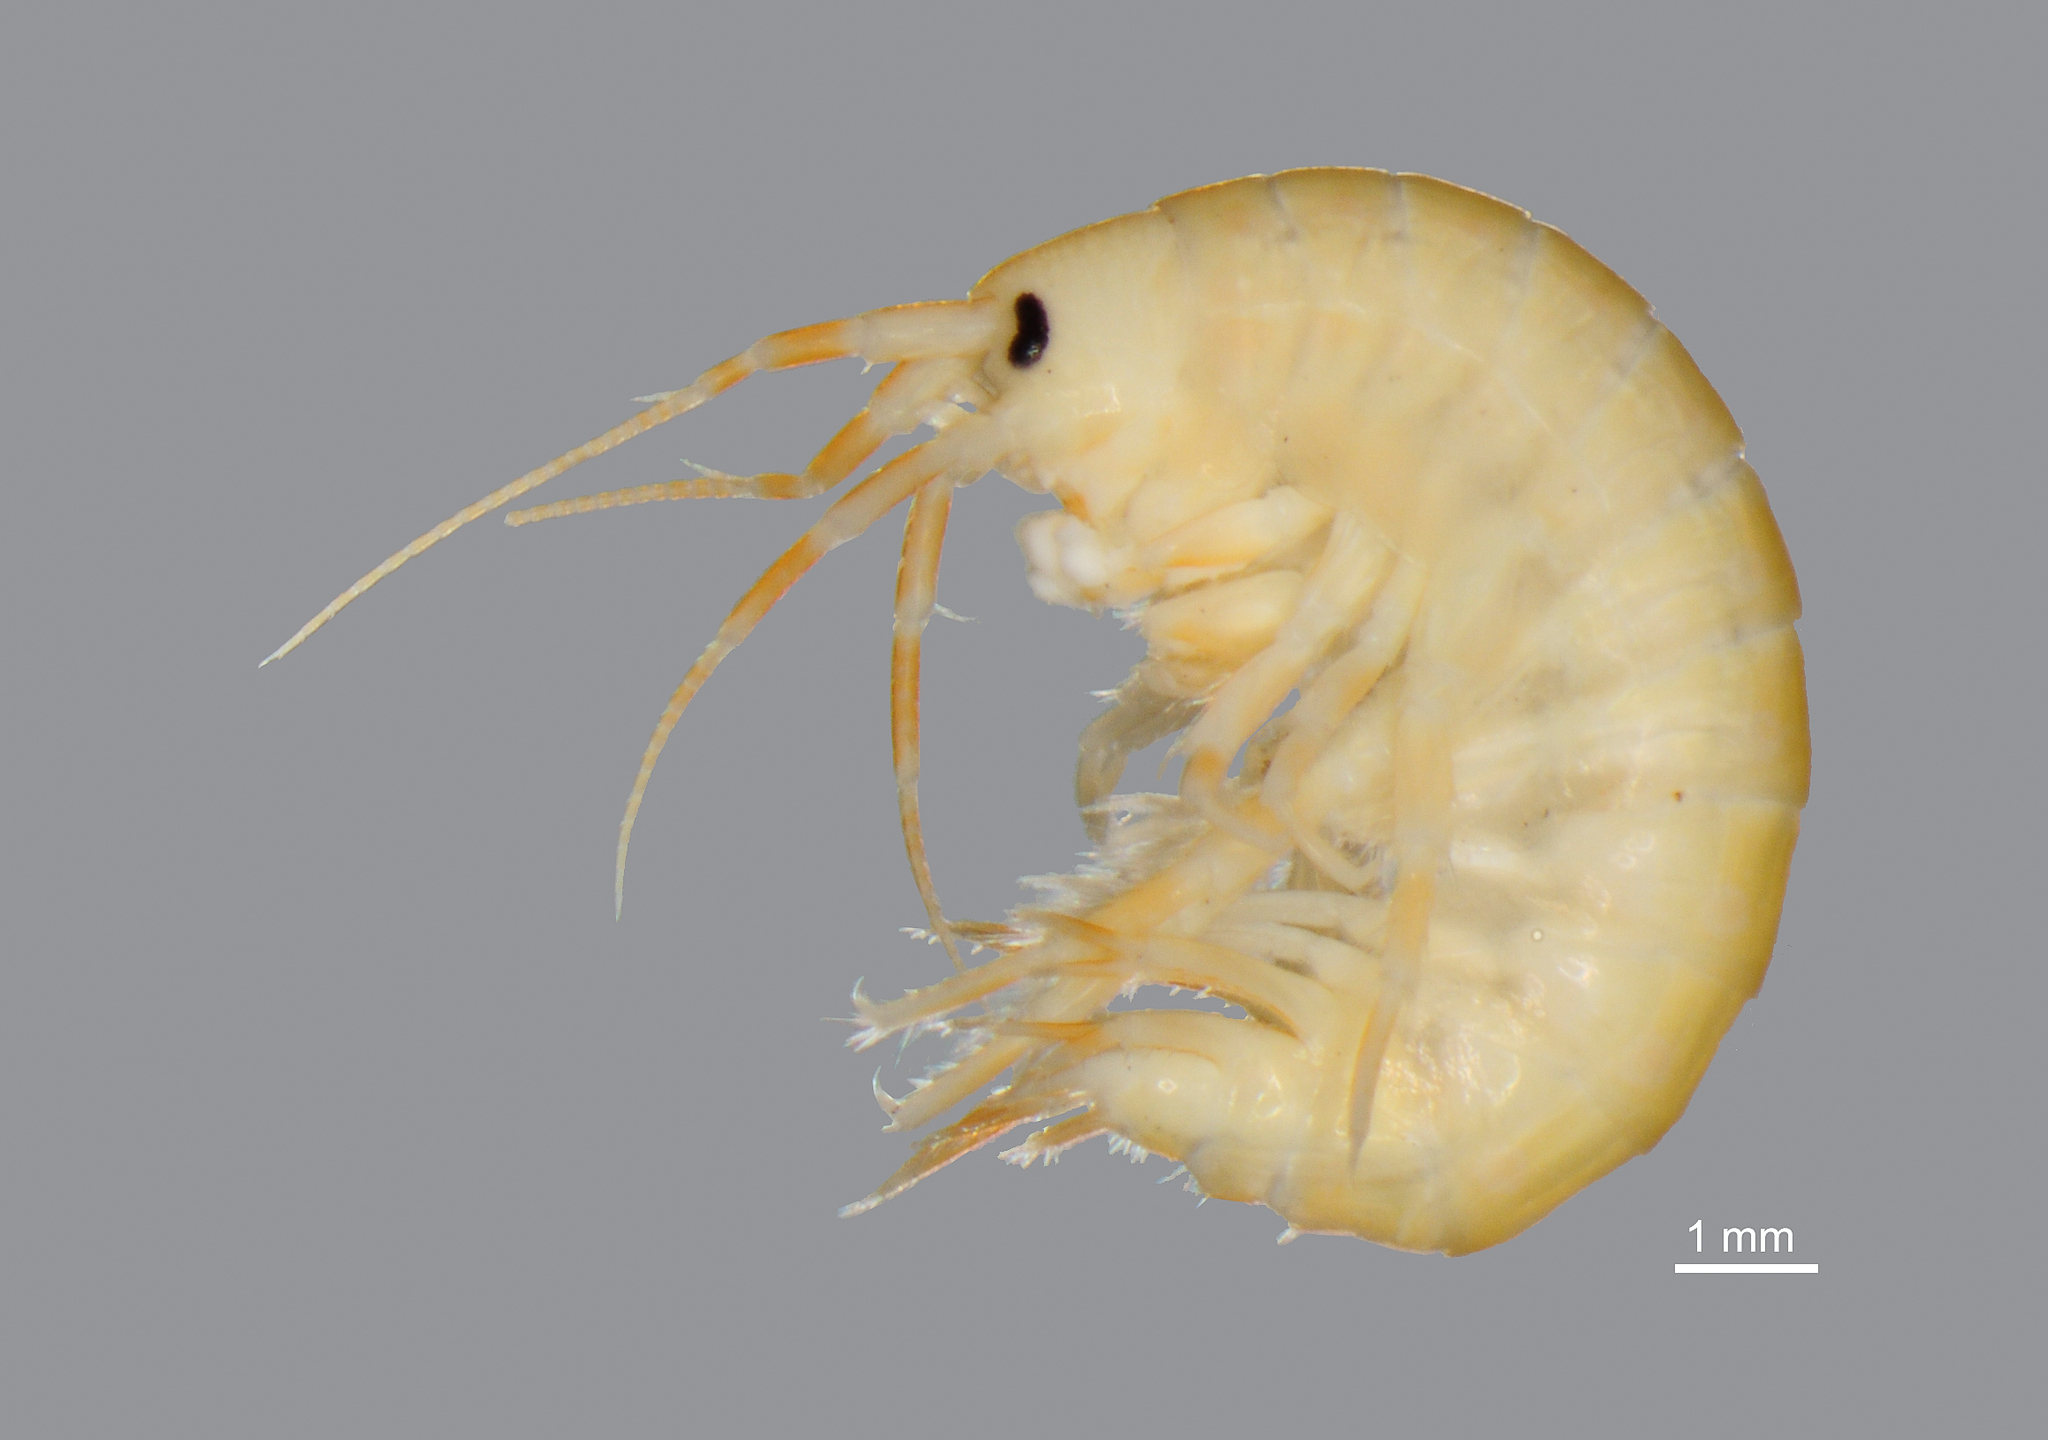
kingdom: Animalia
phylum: Arthropoda
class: Malacostraca
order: Amphipoda
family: Gammaridae
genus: Gammarus
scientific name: Gammarus desperatus
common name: Bitter lakes amphipod
